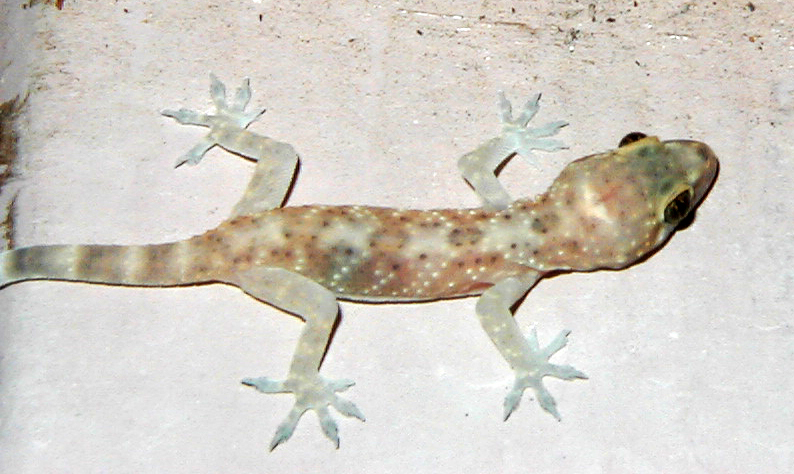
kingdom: Animalia
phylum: Chordata
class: Squamata
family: Gekkonidae
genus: Hemidactylus
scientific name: Hemidactylus turcicus
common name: Turkish gecko
